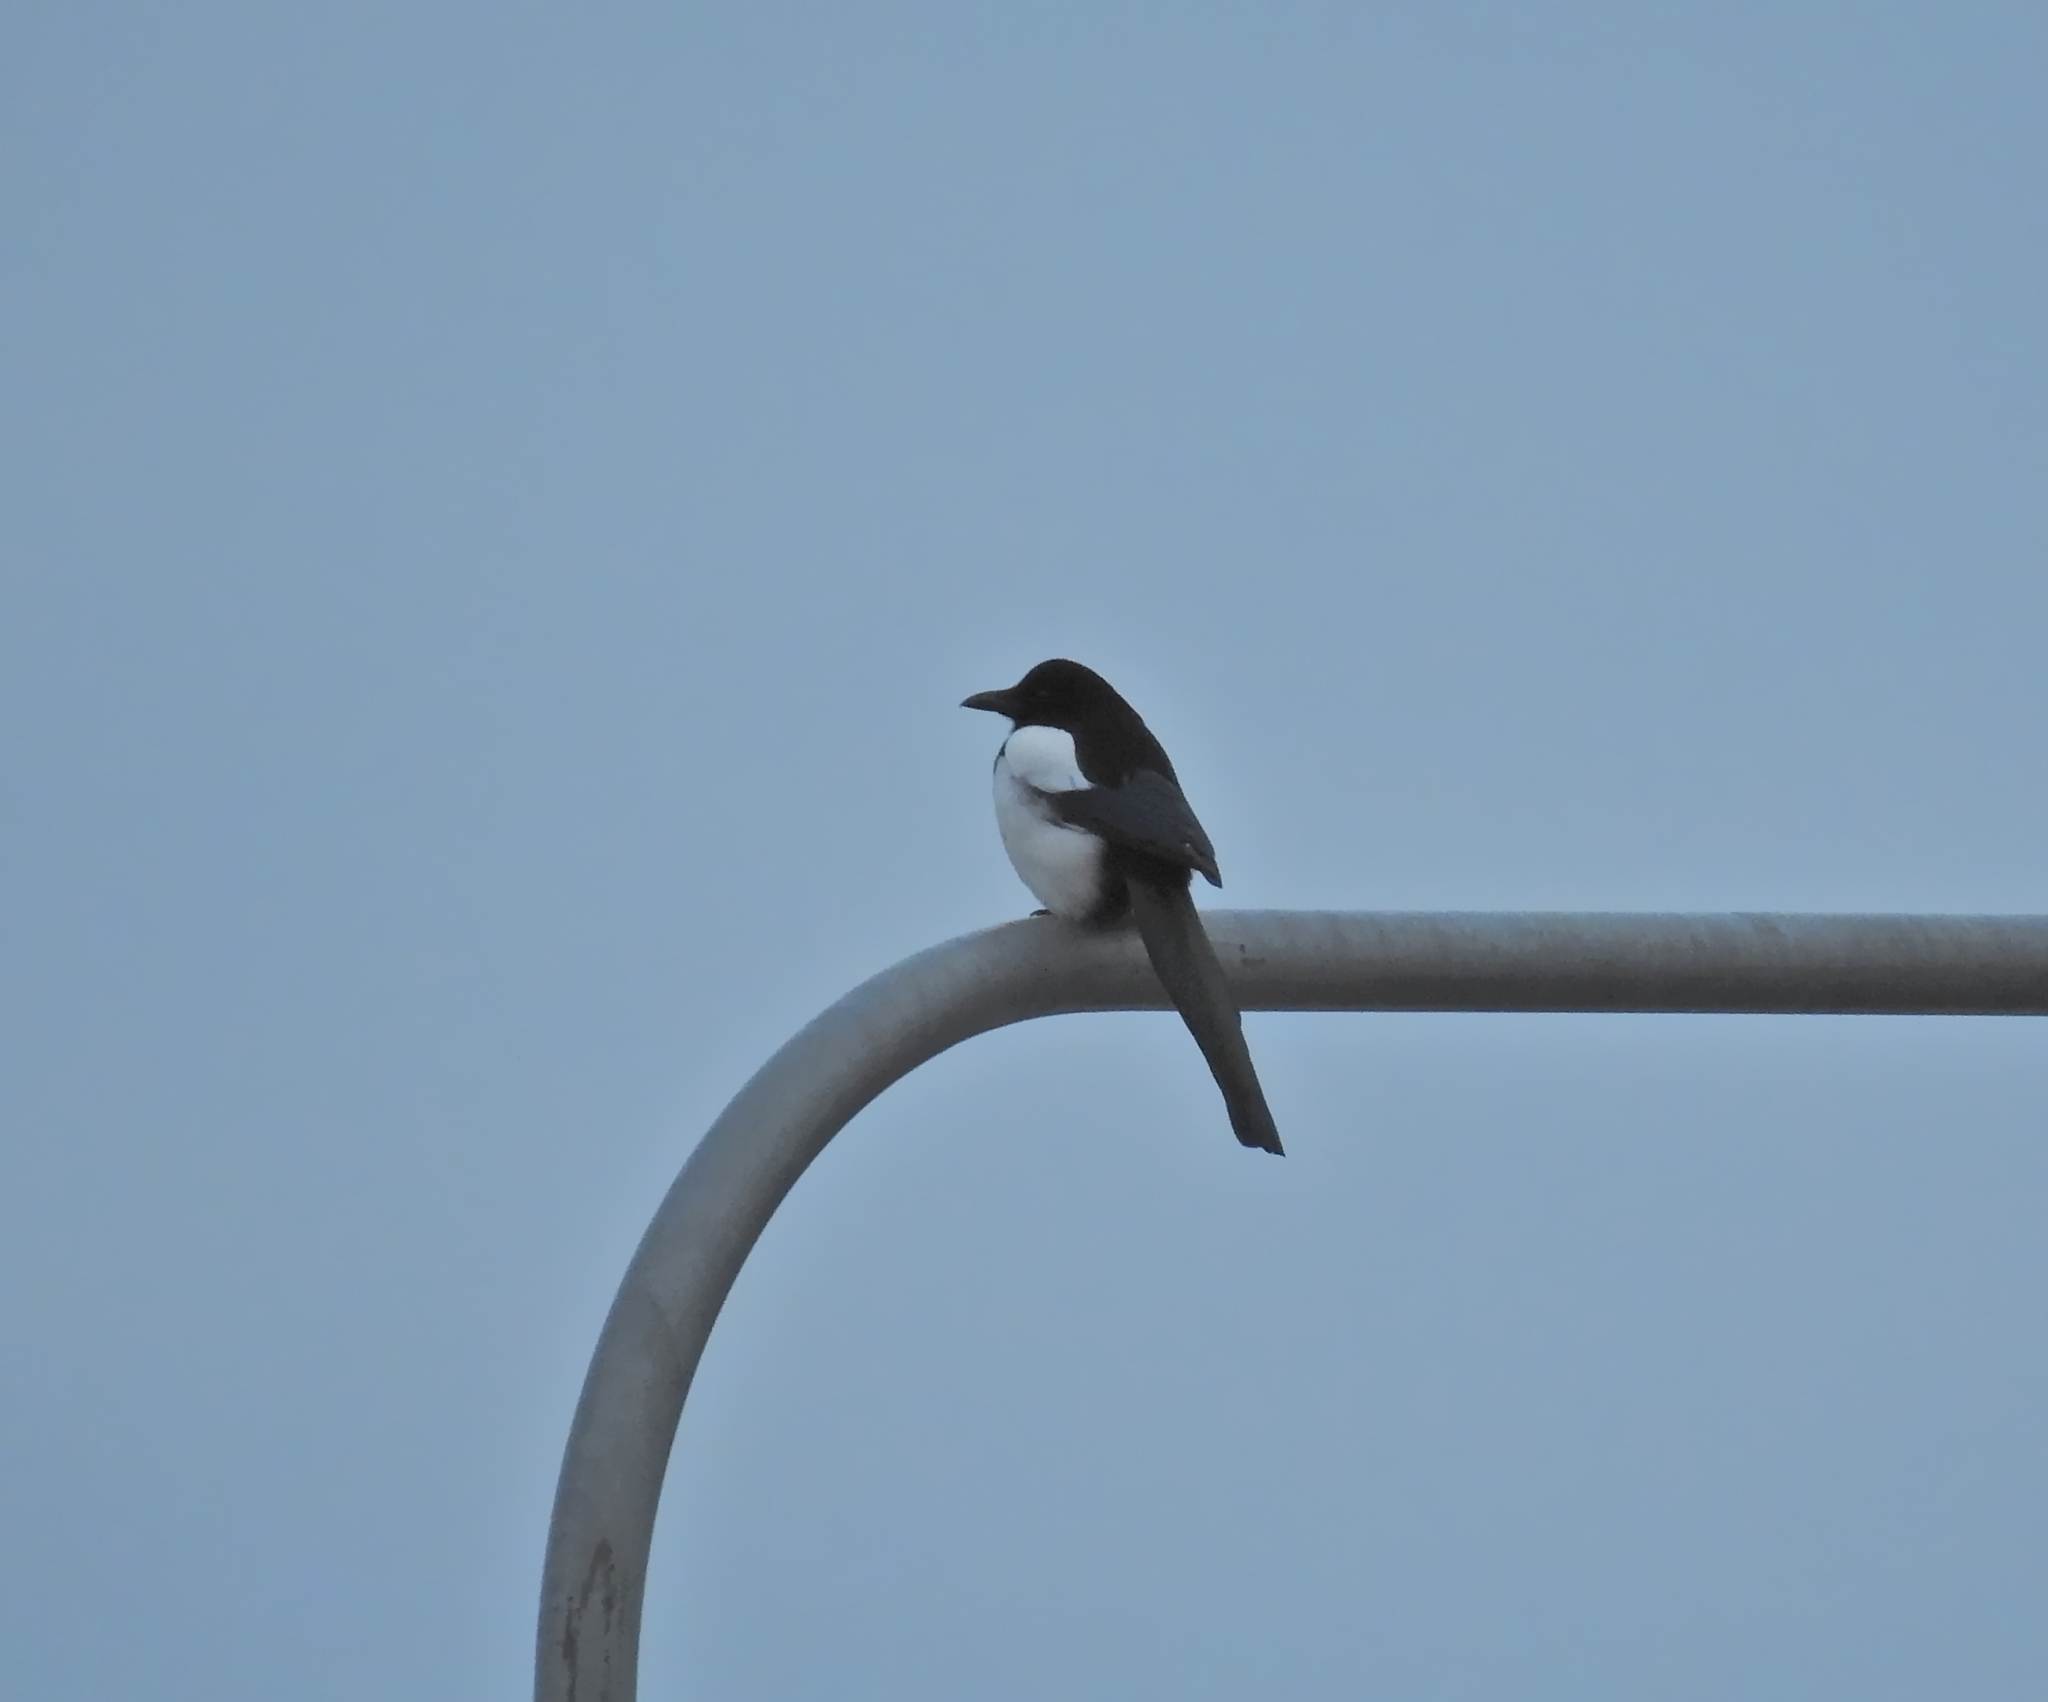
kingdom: Animalia
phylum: Chordata
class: Aves
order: Passeriformes
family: Corvidae
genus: Pica
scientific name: Pica pica
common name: Eurasian magpie
